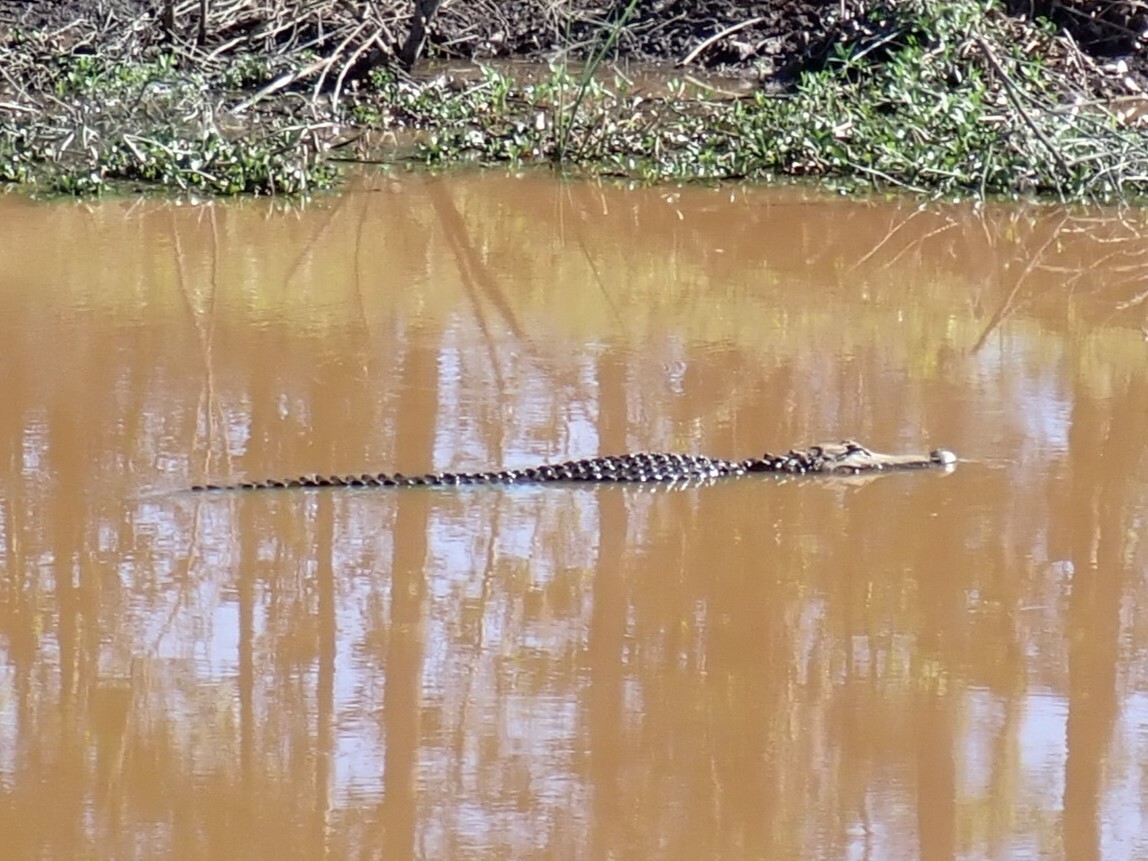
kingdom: Animalia
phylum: Chordata
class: Crocodylia
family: Alligatoridae
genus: Alligator
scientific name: Alligator mississippiensis
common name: American alligator
